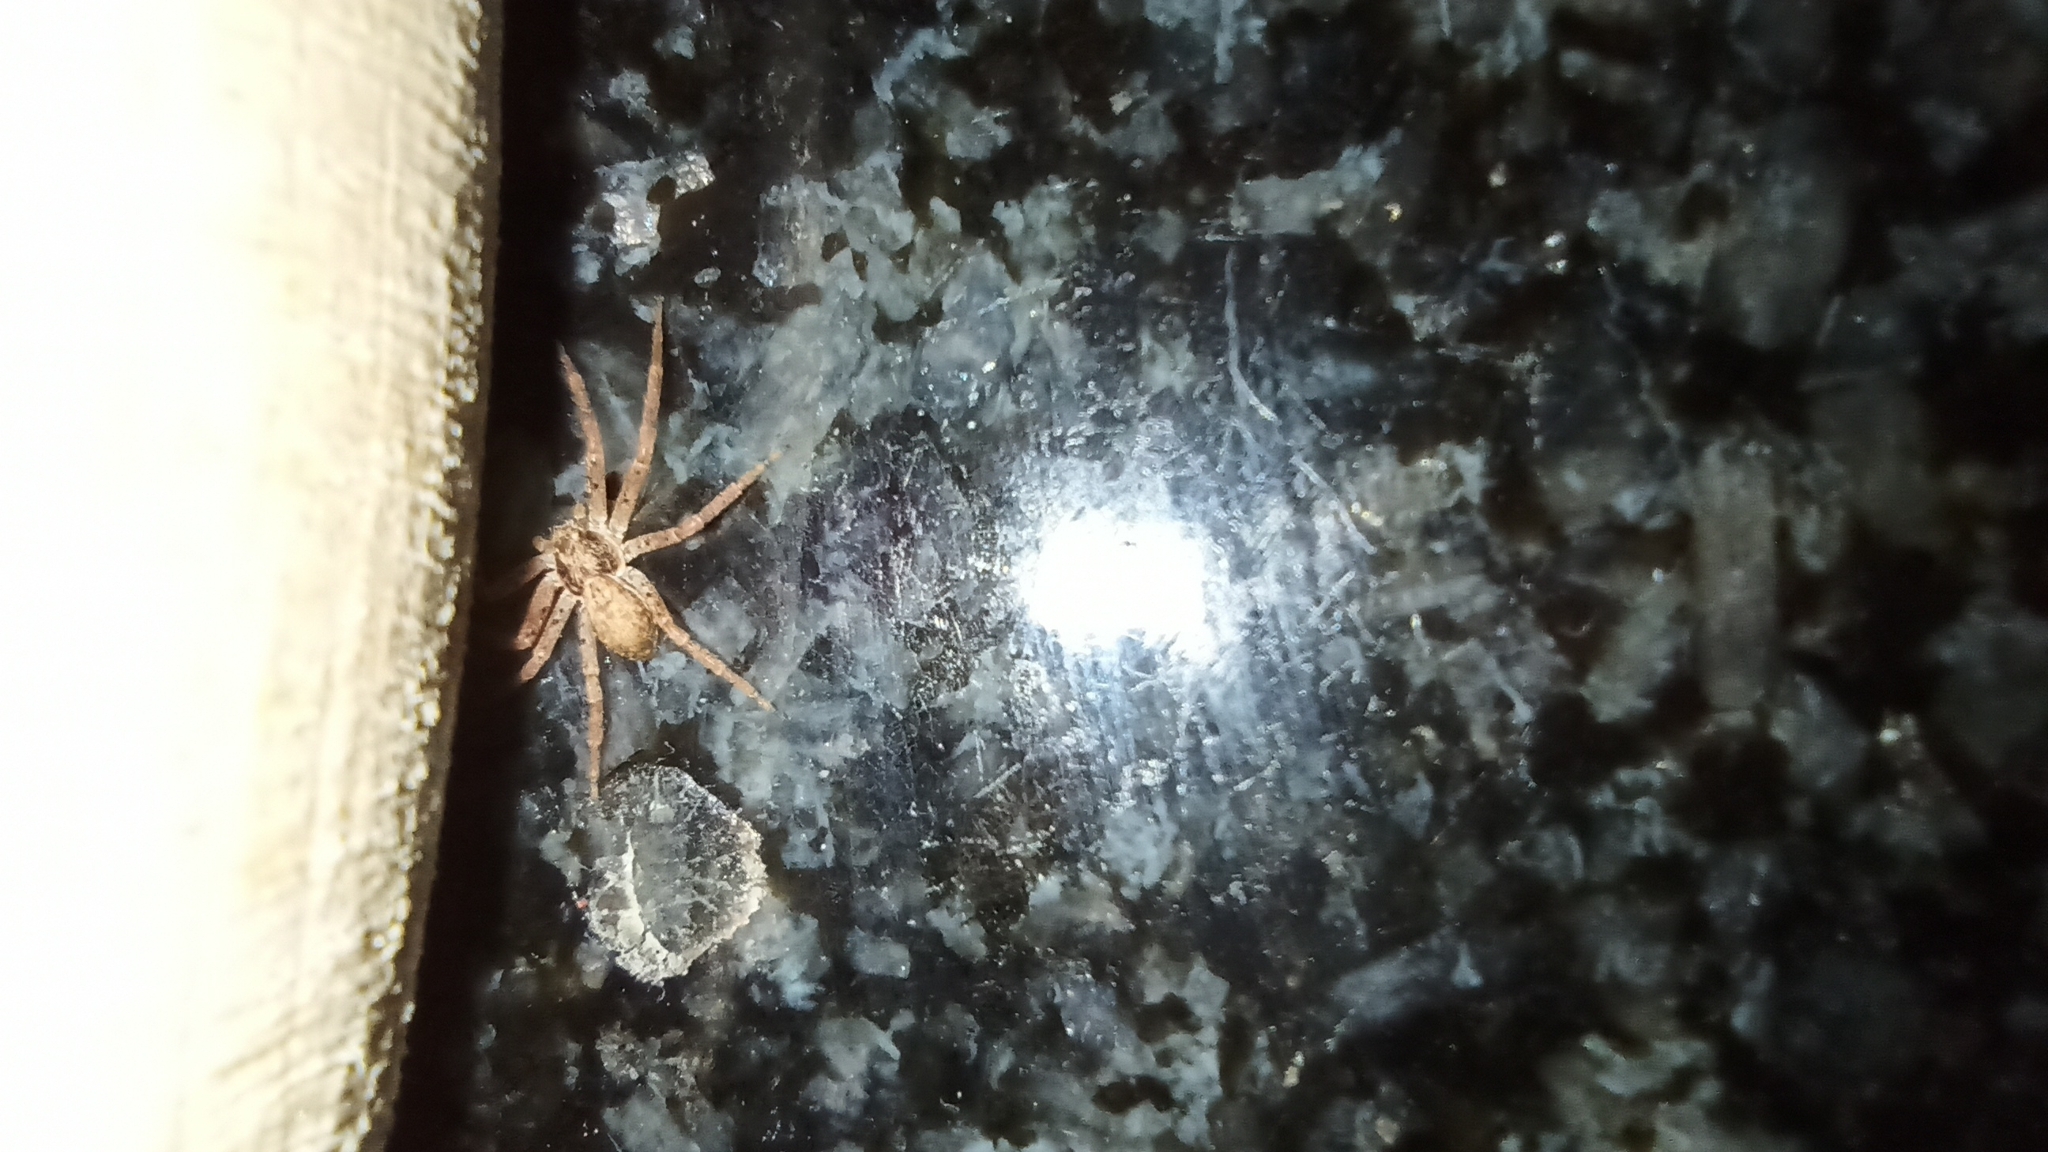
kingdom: Animalia
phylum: Arthropoda
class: Arachnida
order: Araneae
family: Philodromidae
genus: Philodromus
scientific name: Philodromus dispar
